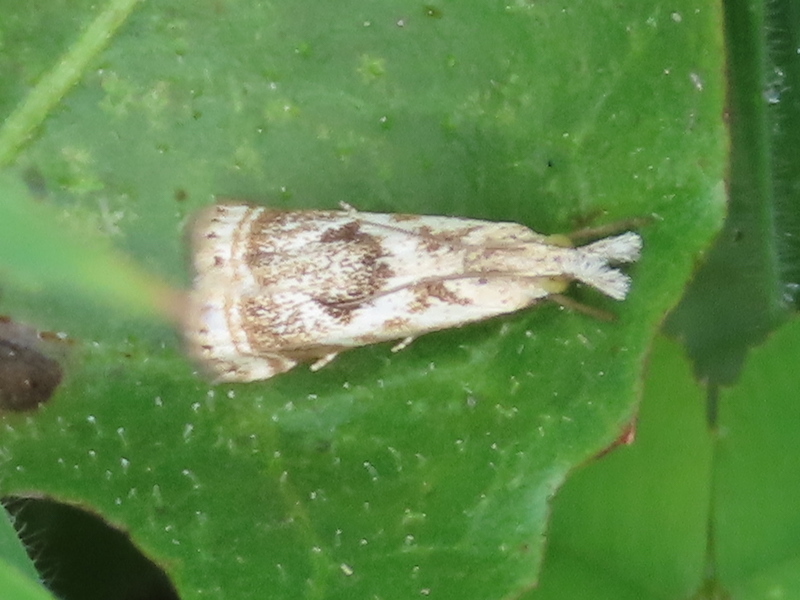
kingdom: Animalia
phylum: Arthropoda
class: Insecta
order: Lepidoptera
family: Crambidae
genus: Microcrambus
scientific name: Microcrambus elegans
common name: Elegant grass-veneer
